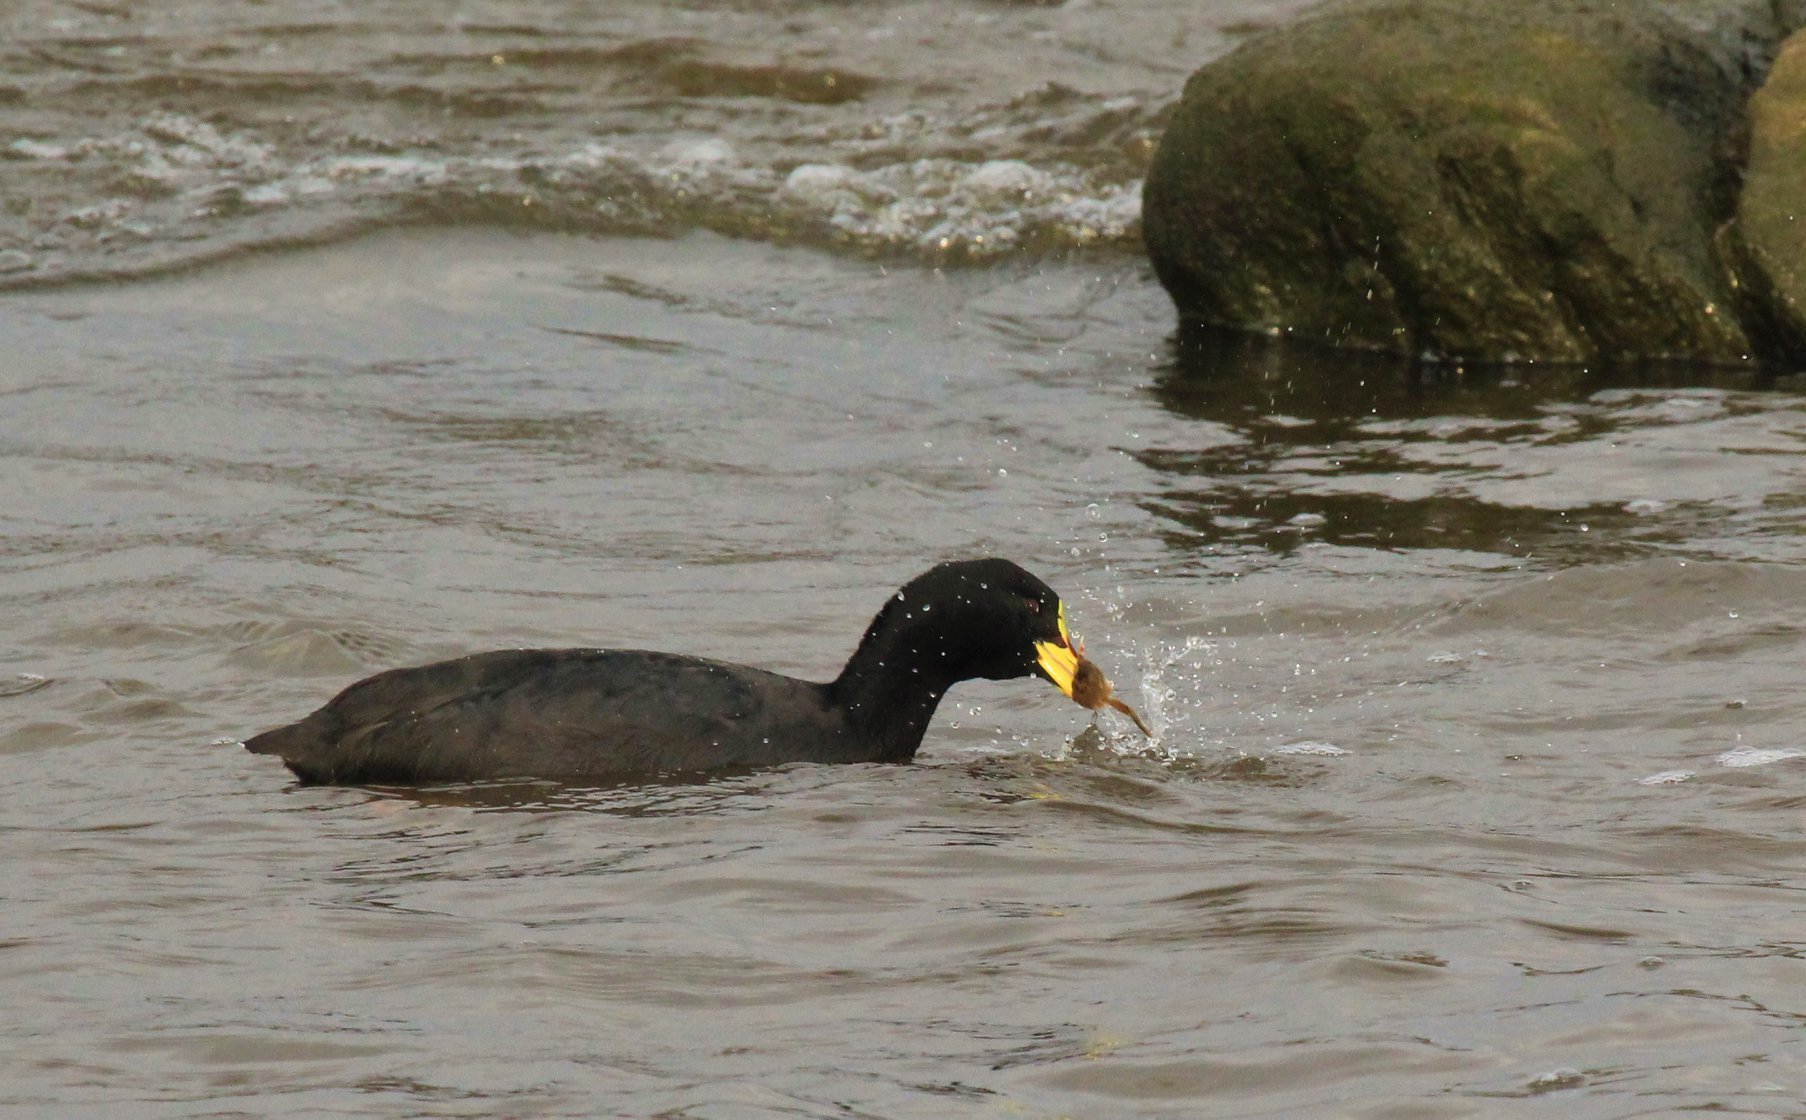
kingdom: Animalia
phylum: Chordata
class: Aves
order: Gruiformes
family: Rallidae
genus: Fulica
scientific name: Fulica armillata
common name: Red-gartered coot
